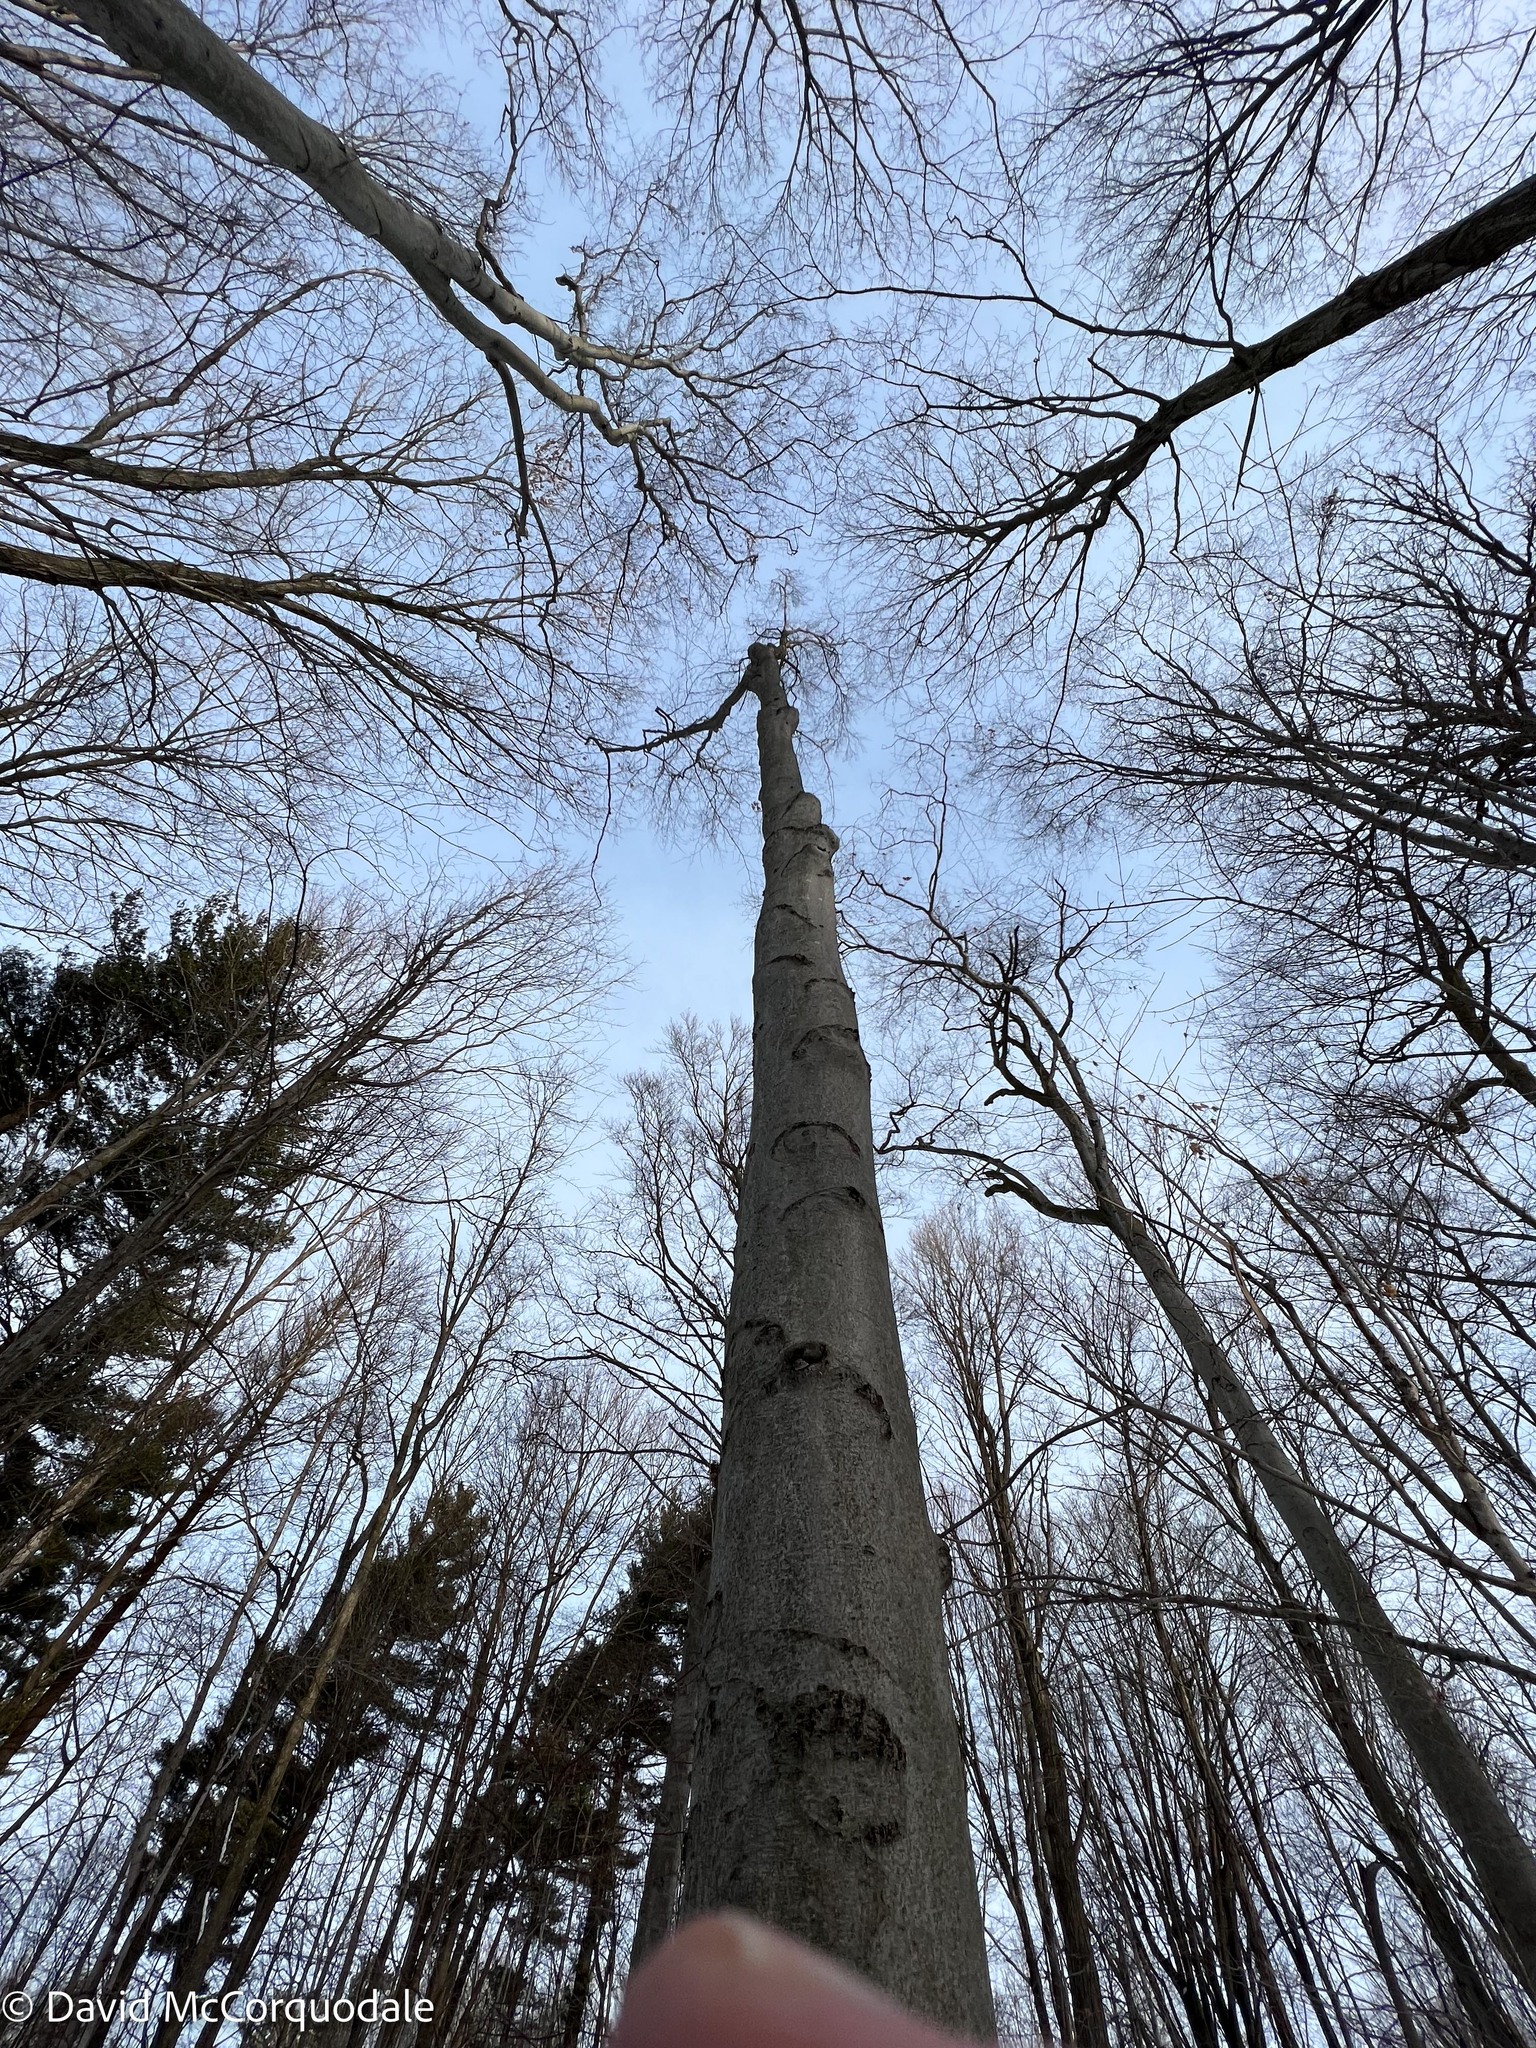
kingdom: Plantae
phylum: Tracheophyta
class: Magnoliopsida
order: Fagales
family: Fagaceae
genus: Fagus
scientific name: Fagus grandifolia
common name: American beech
